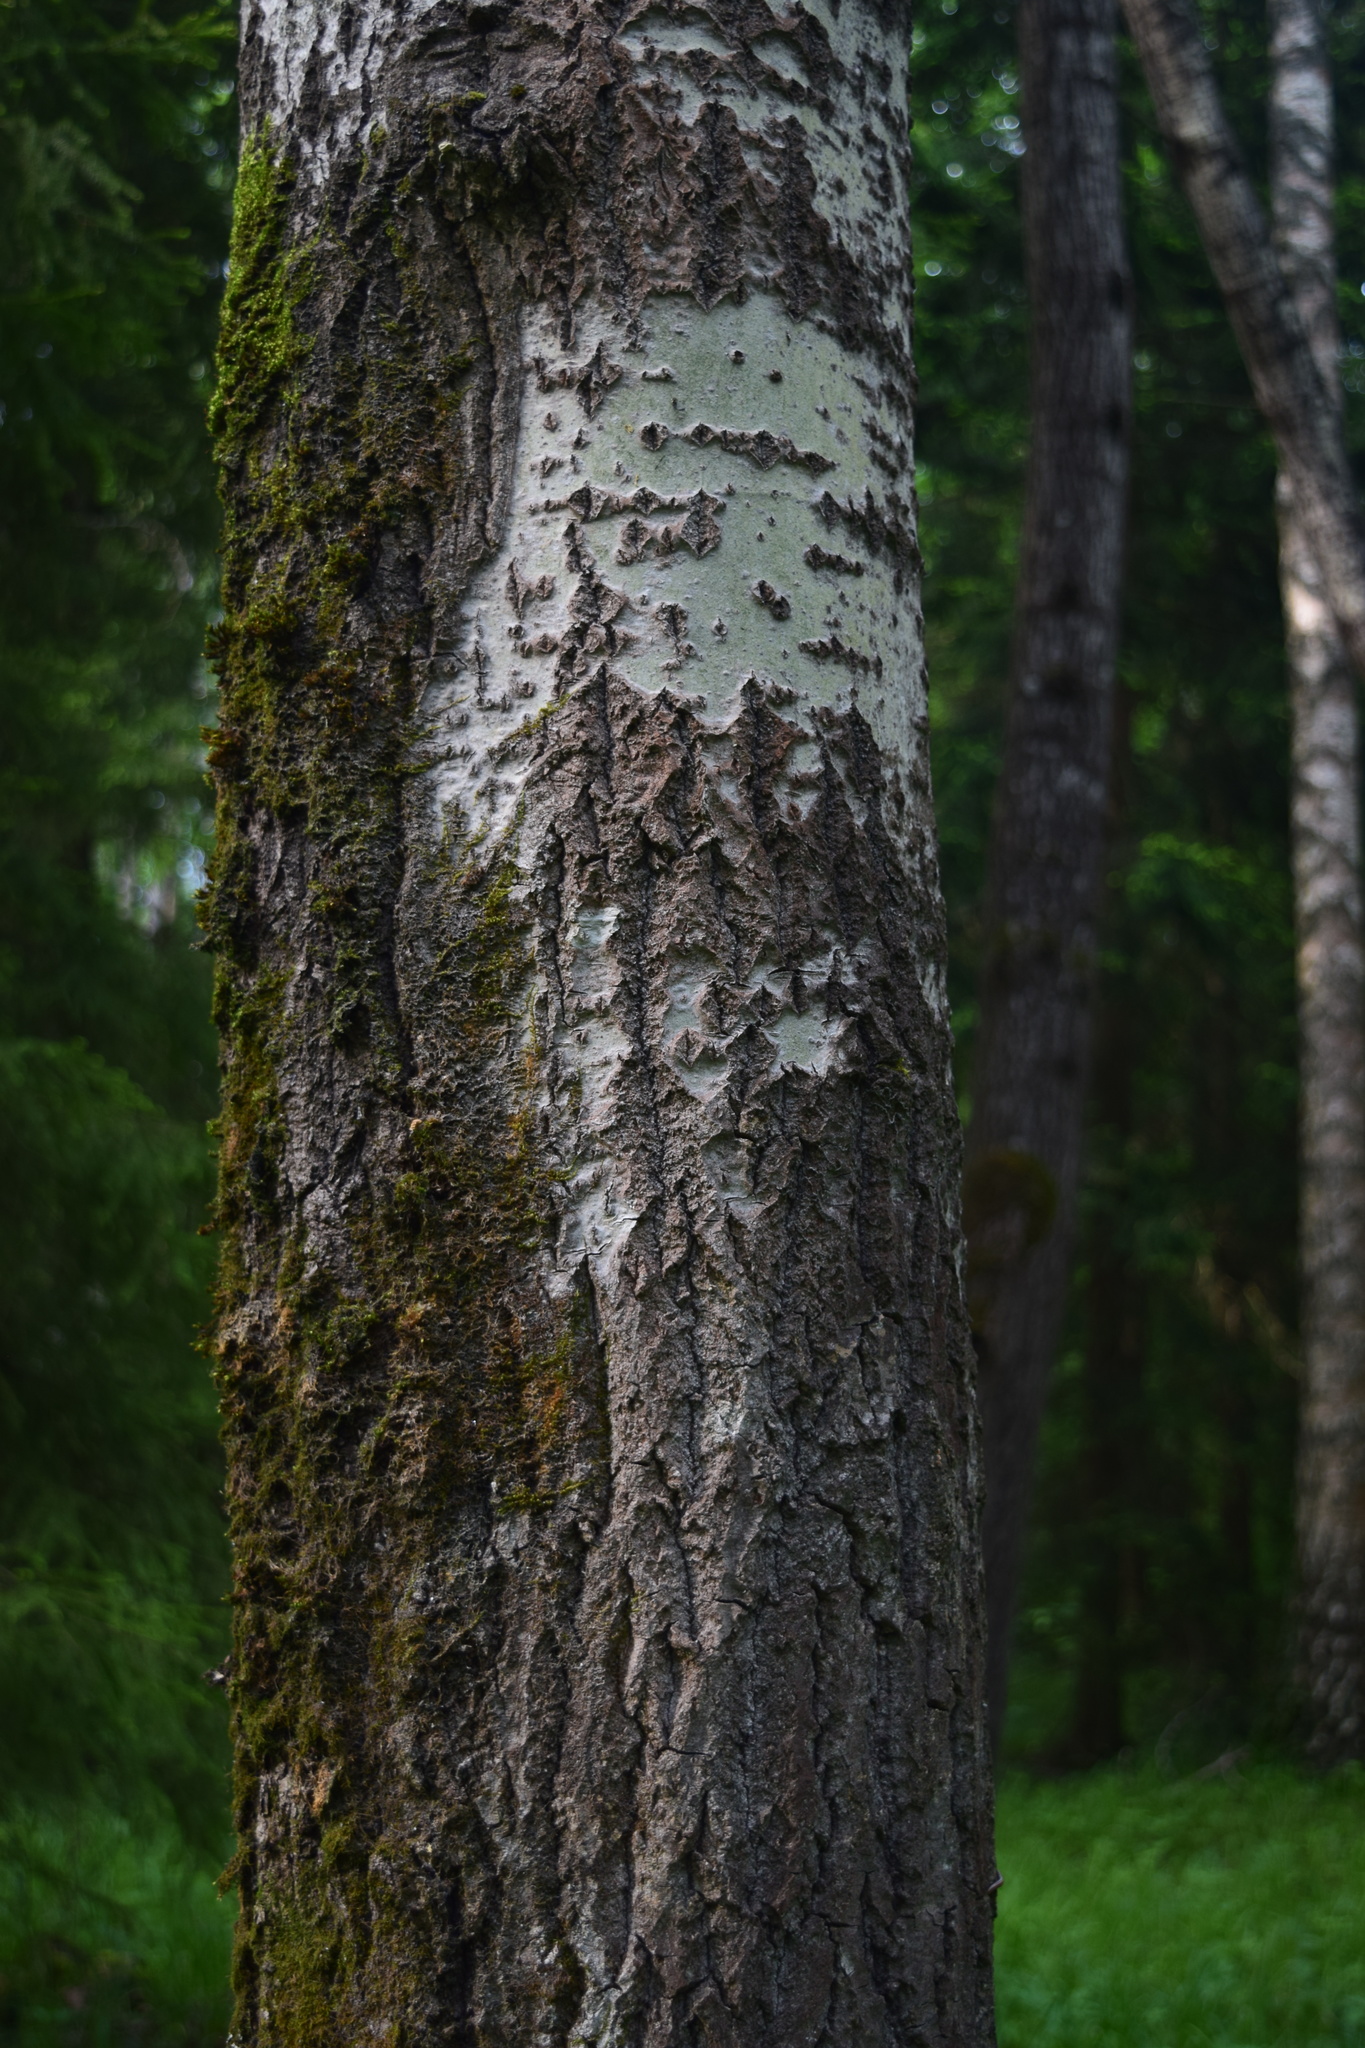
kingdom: Plantae
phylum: Tracheophyta
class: Magnoliopsida
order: Malpighiales
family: Salicaceae
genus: Populus
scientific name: Populus tremula
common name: European aspen
